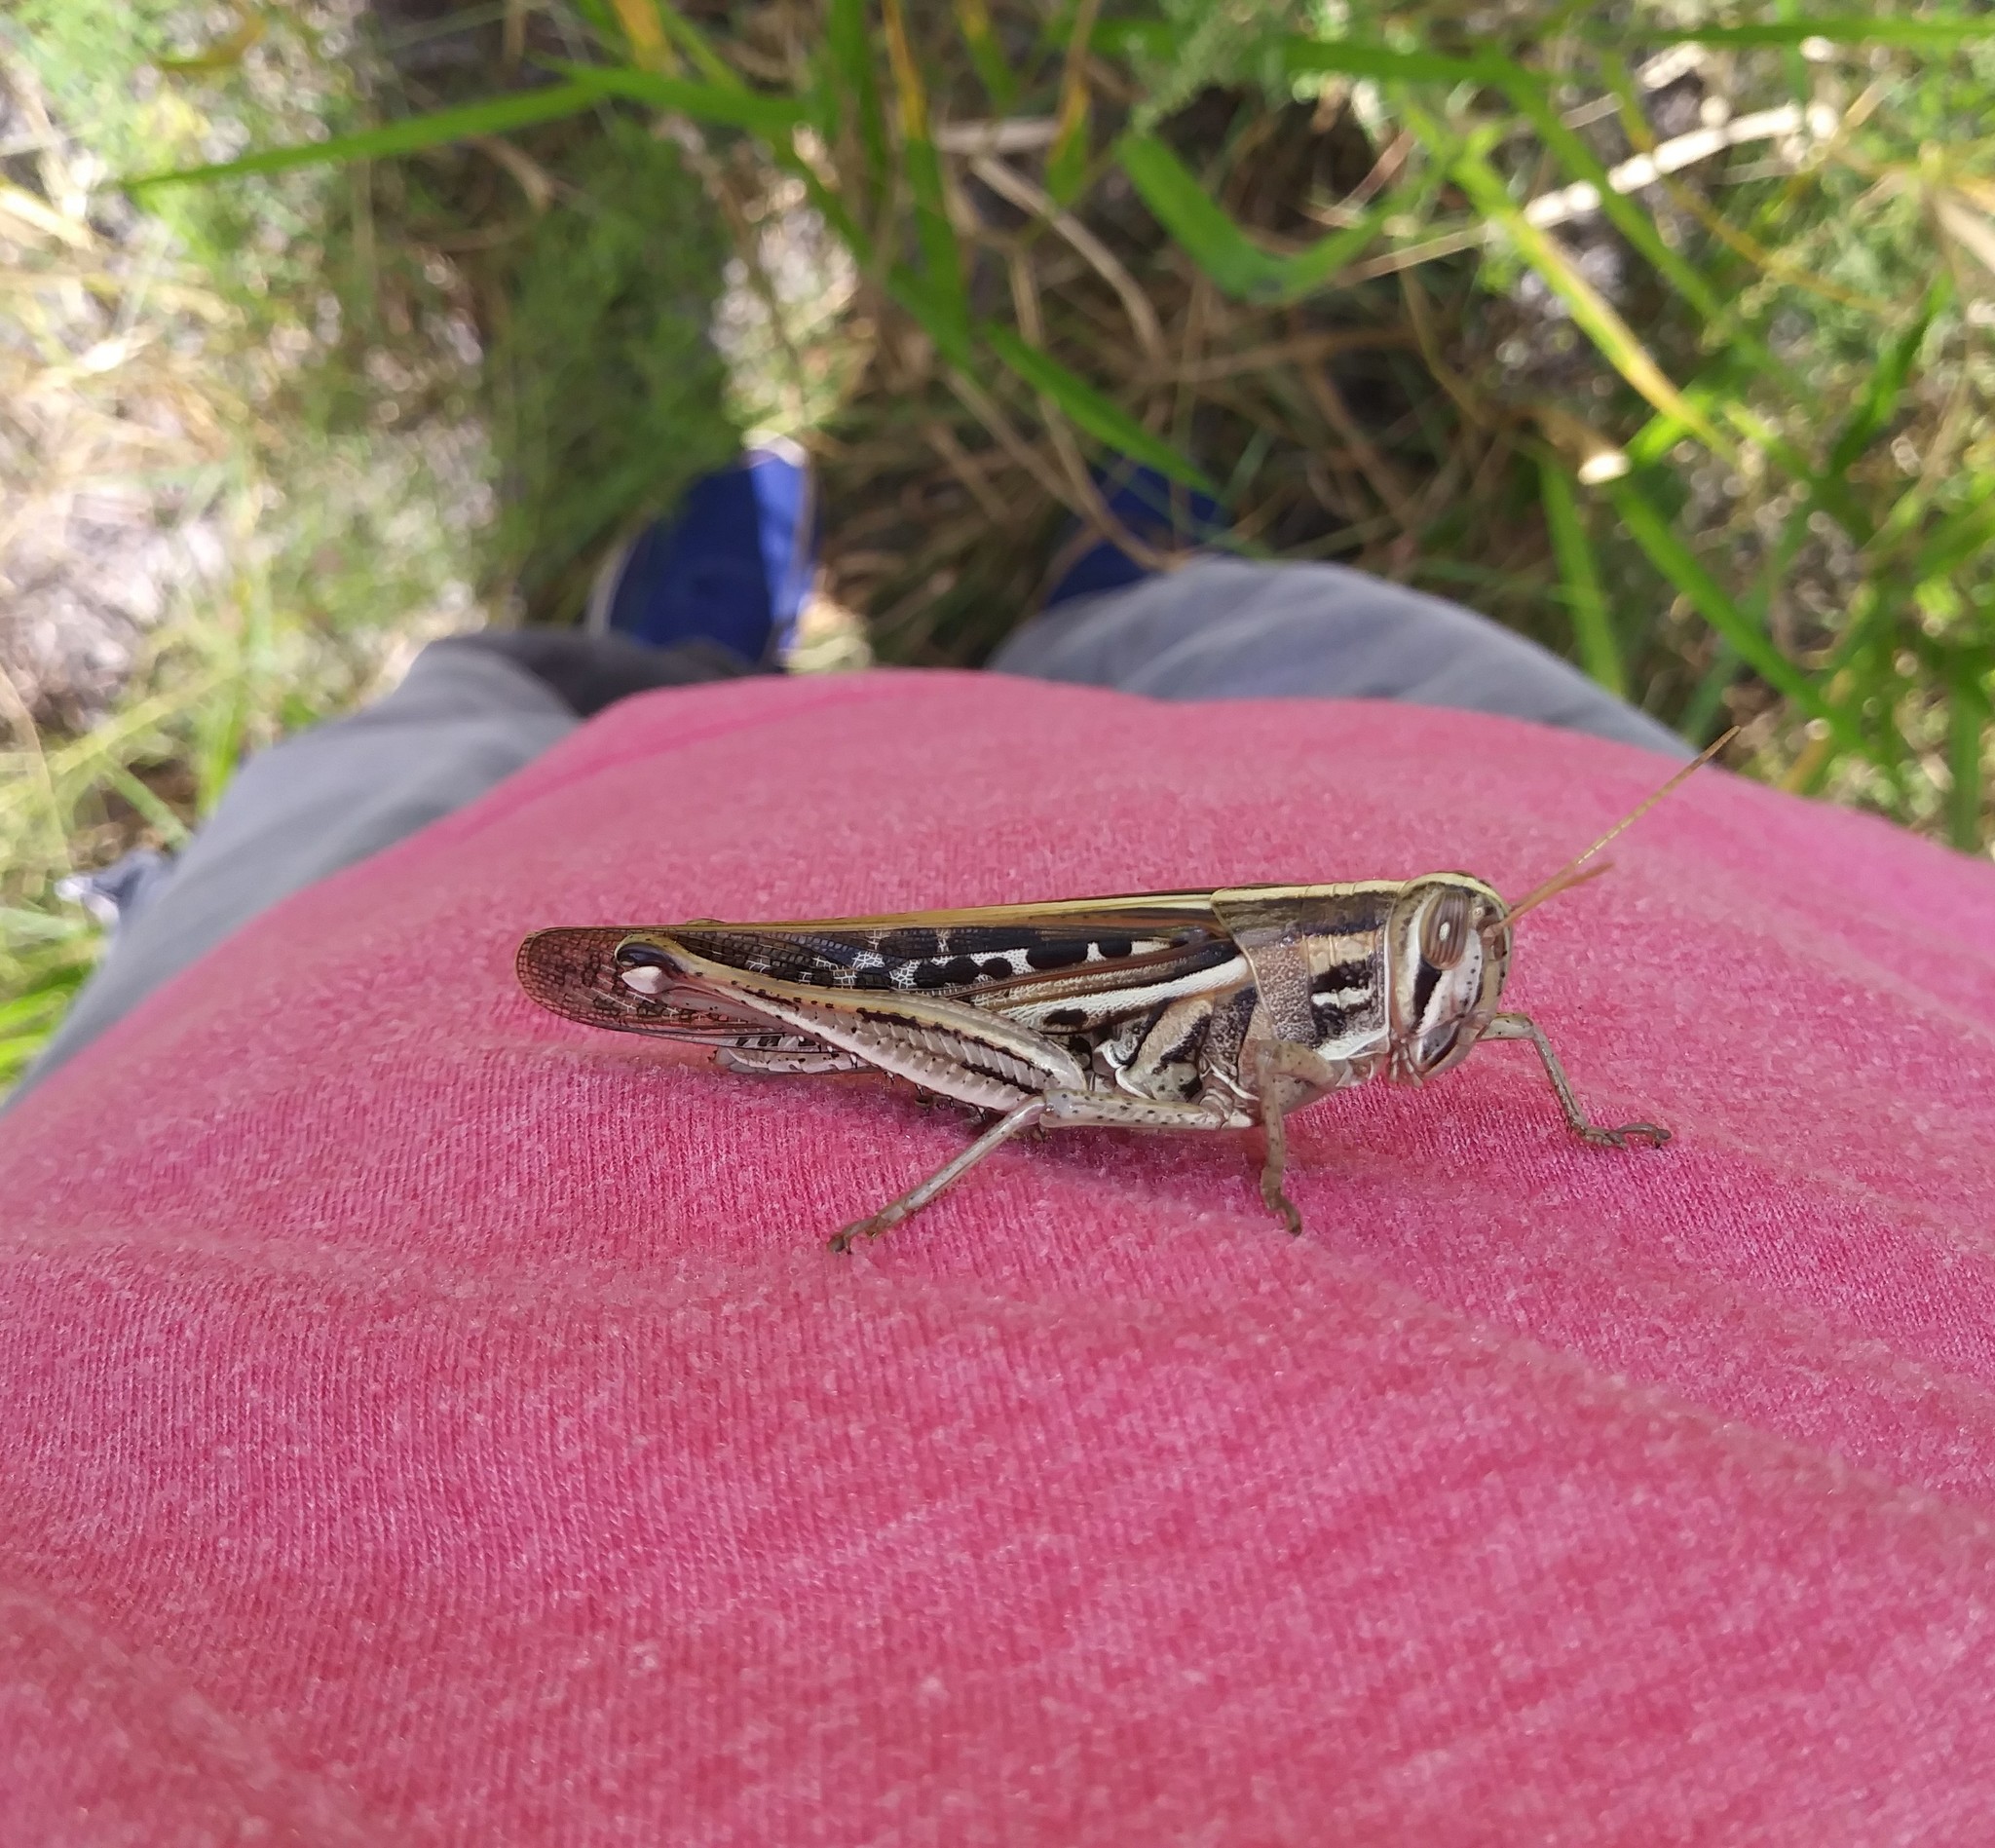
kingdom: Animalia
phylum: Arthropoda
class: Insecta
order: Orthoptera
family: Acrididae
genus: Schistocerca
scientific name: Schistocerca americana
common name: American bird locust
